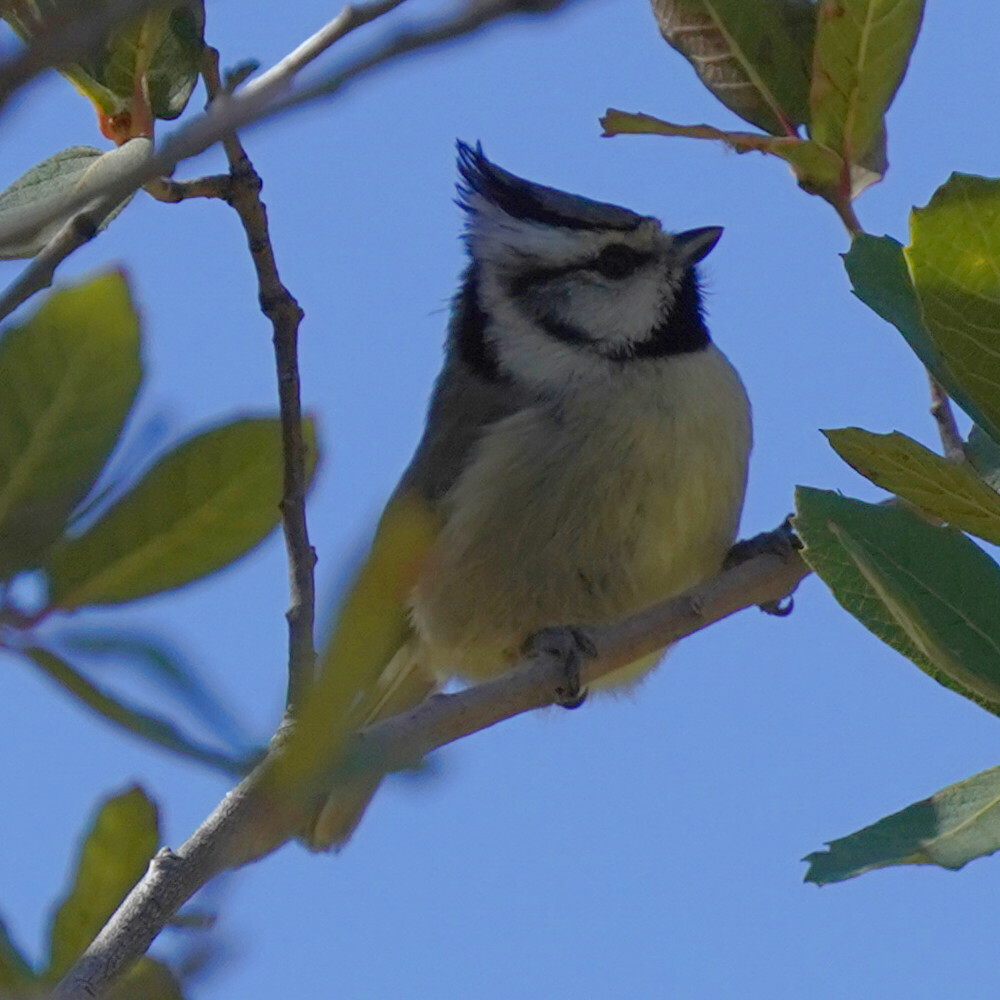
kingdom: Animalia
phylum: Chordata
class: Aves
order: Passeriformes
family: Paridae
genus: Baeolophus
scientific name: Baeolophus wollweberi
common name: Bridled titmouse
